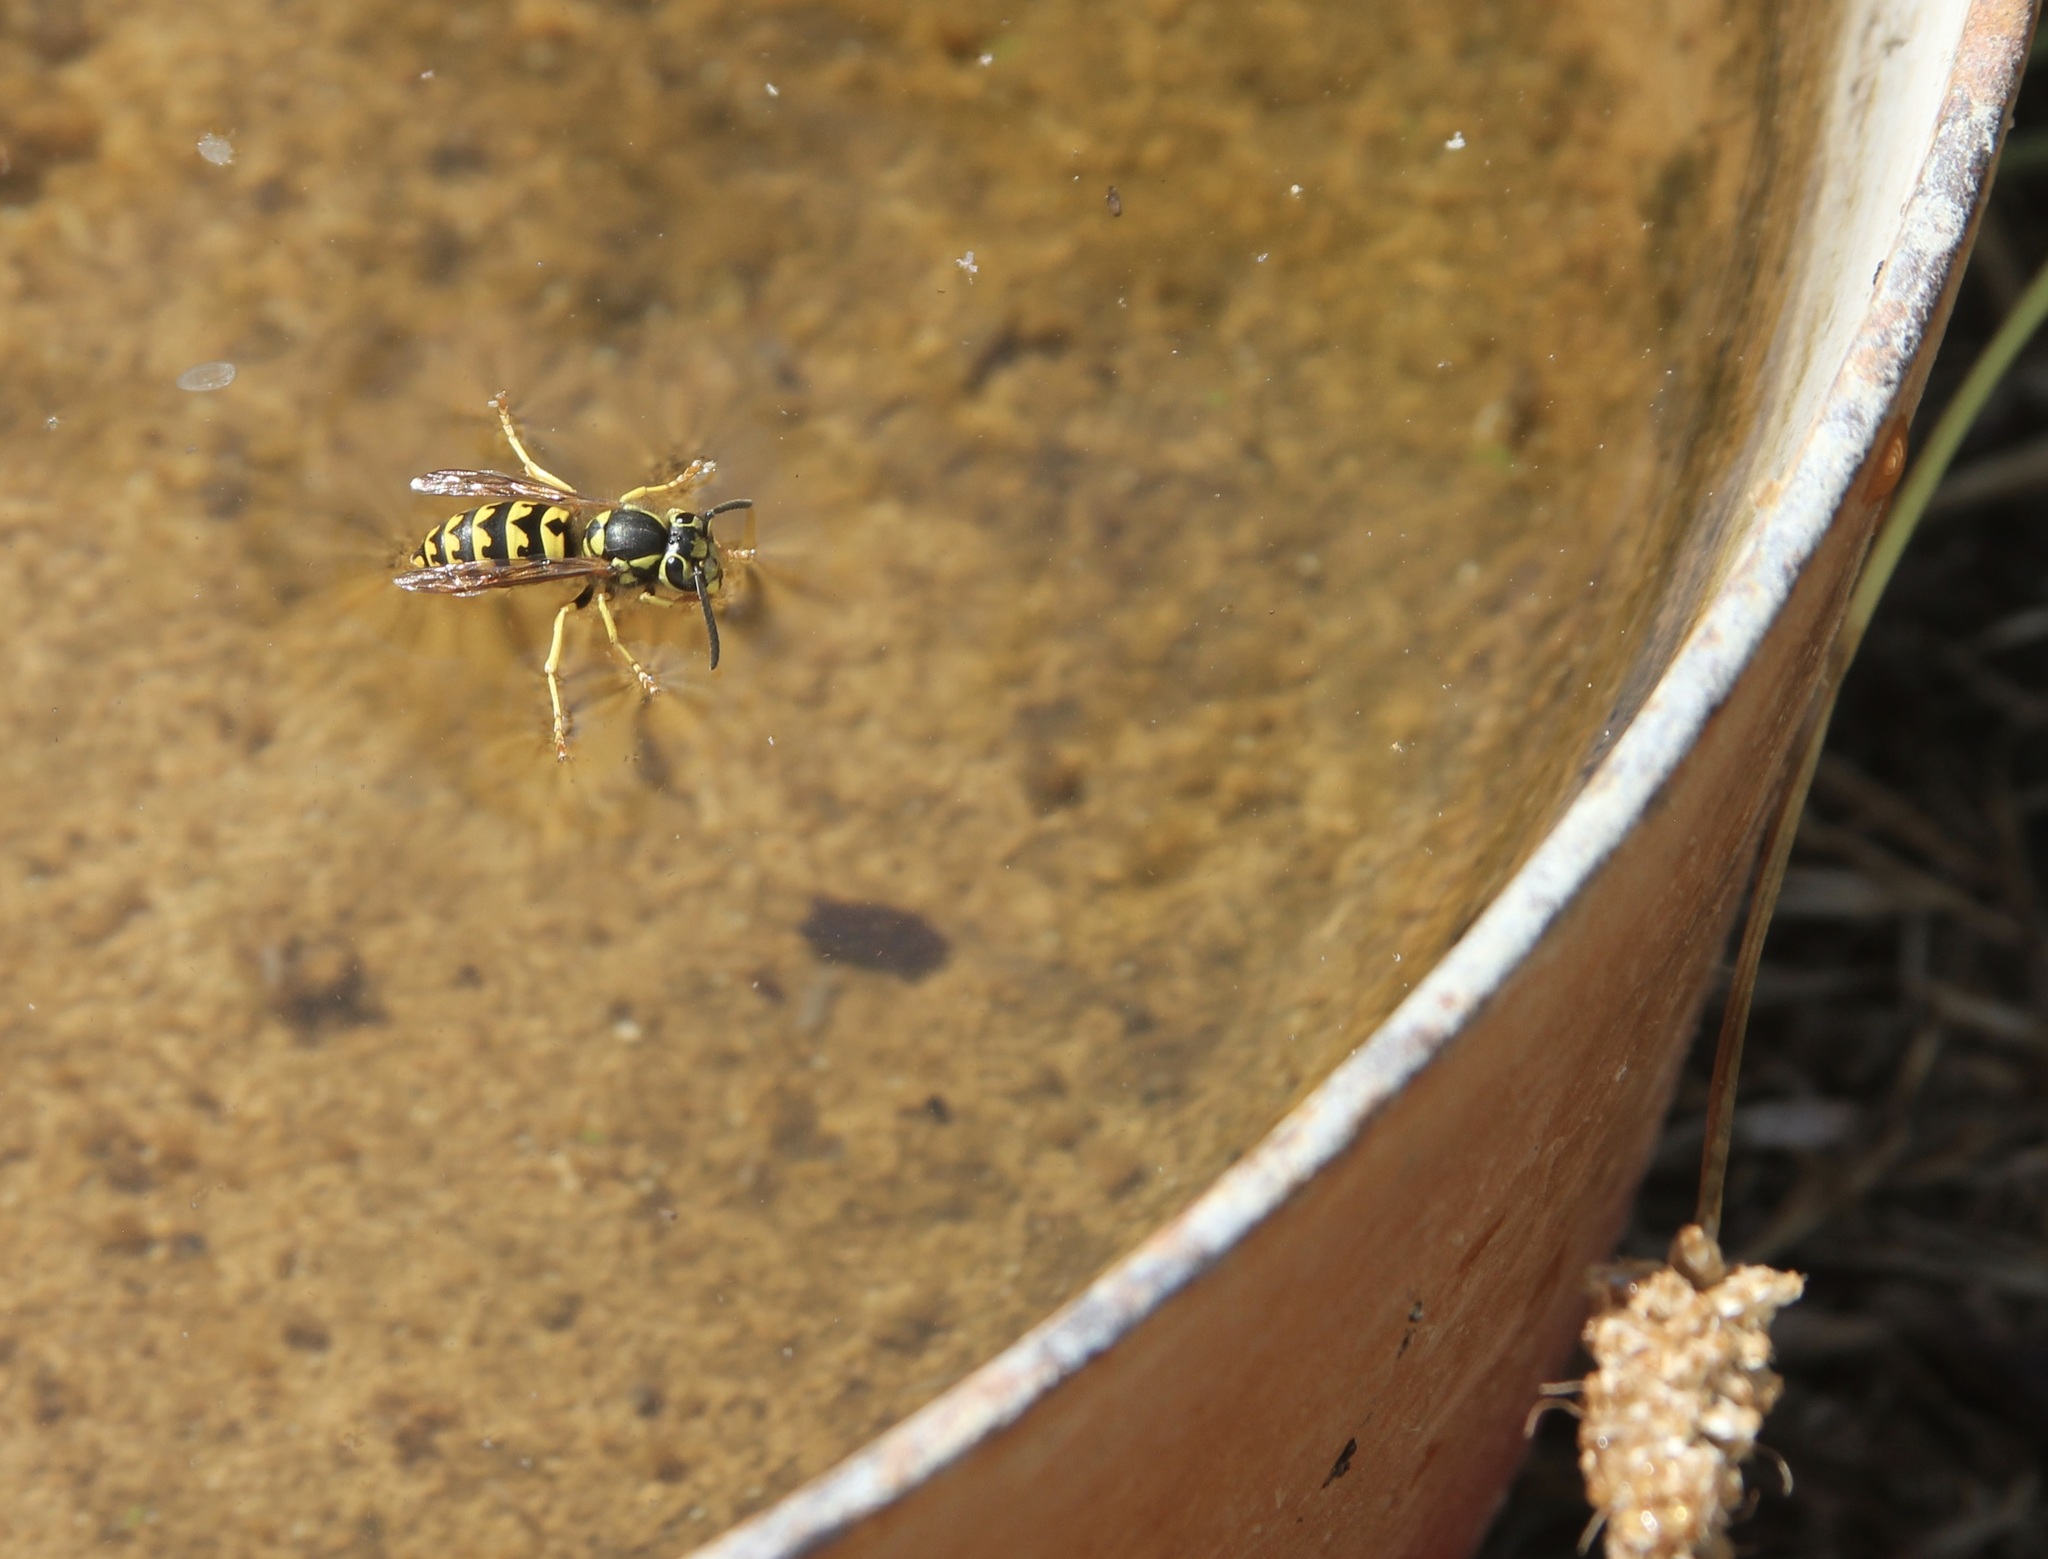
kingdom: Animalia
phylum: Arthropoda
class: Insecta
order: Hymenoptera
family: Vespidae
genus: Vespula
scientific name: Vespula pensylvanica
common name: Western yellowjacket
